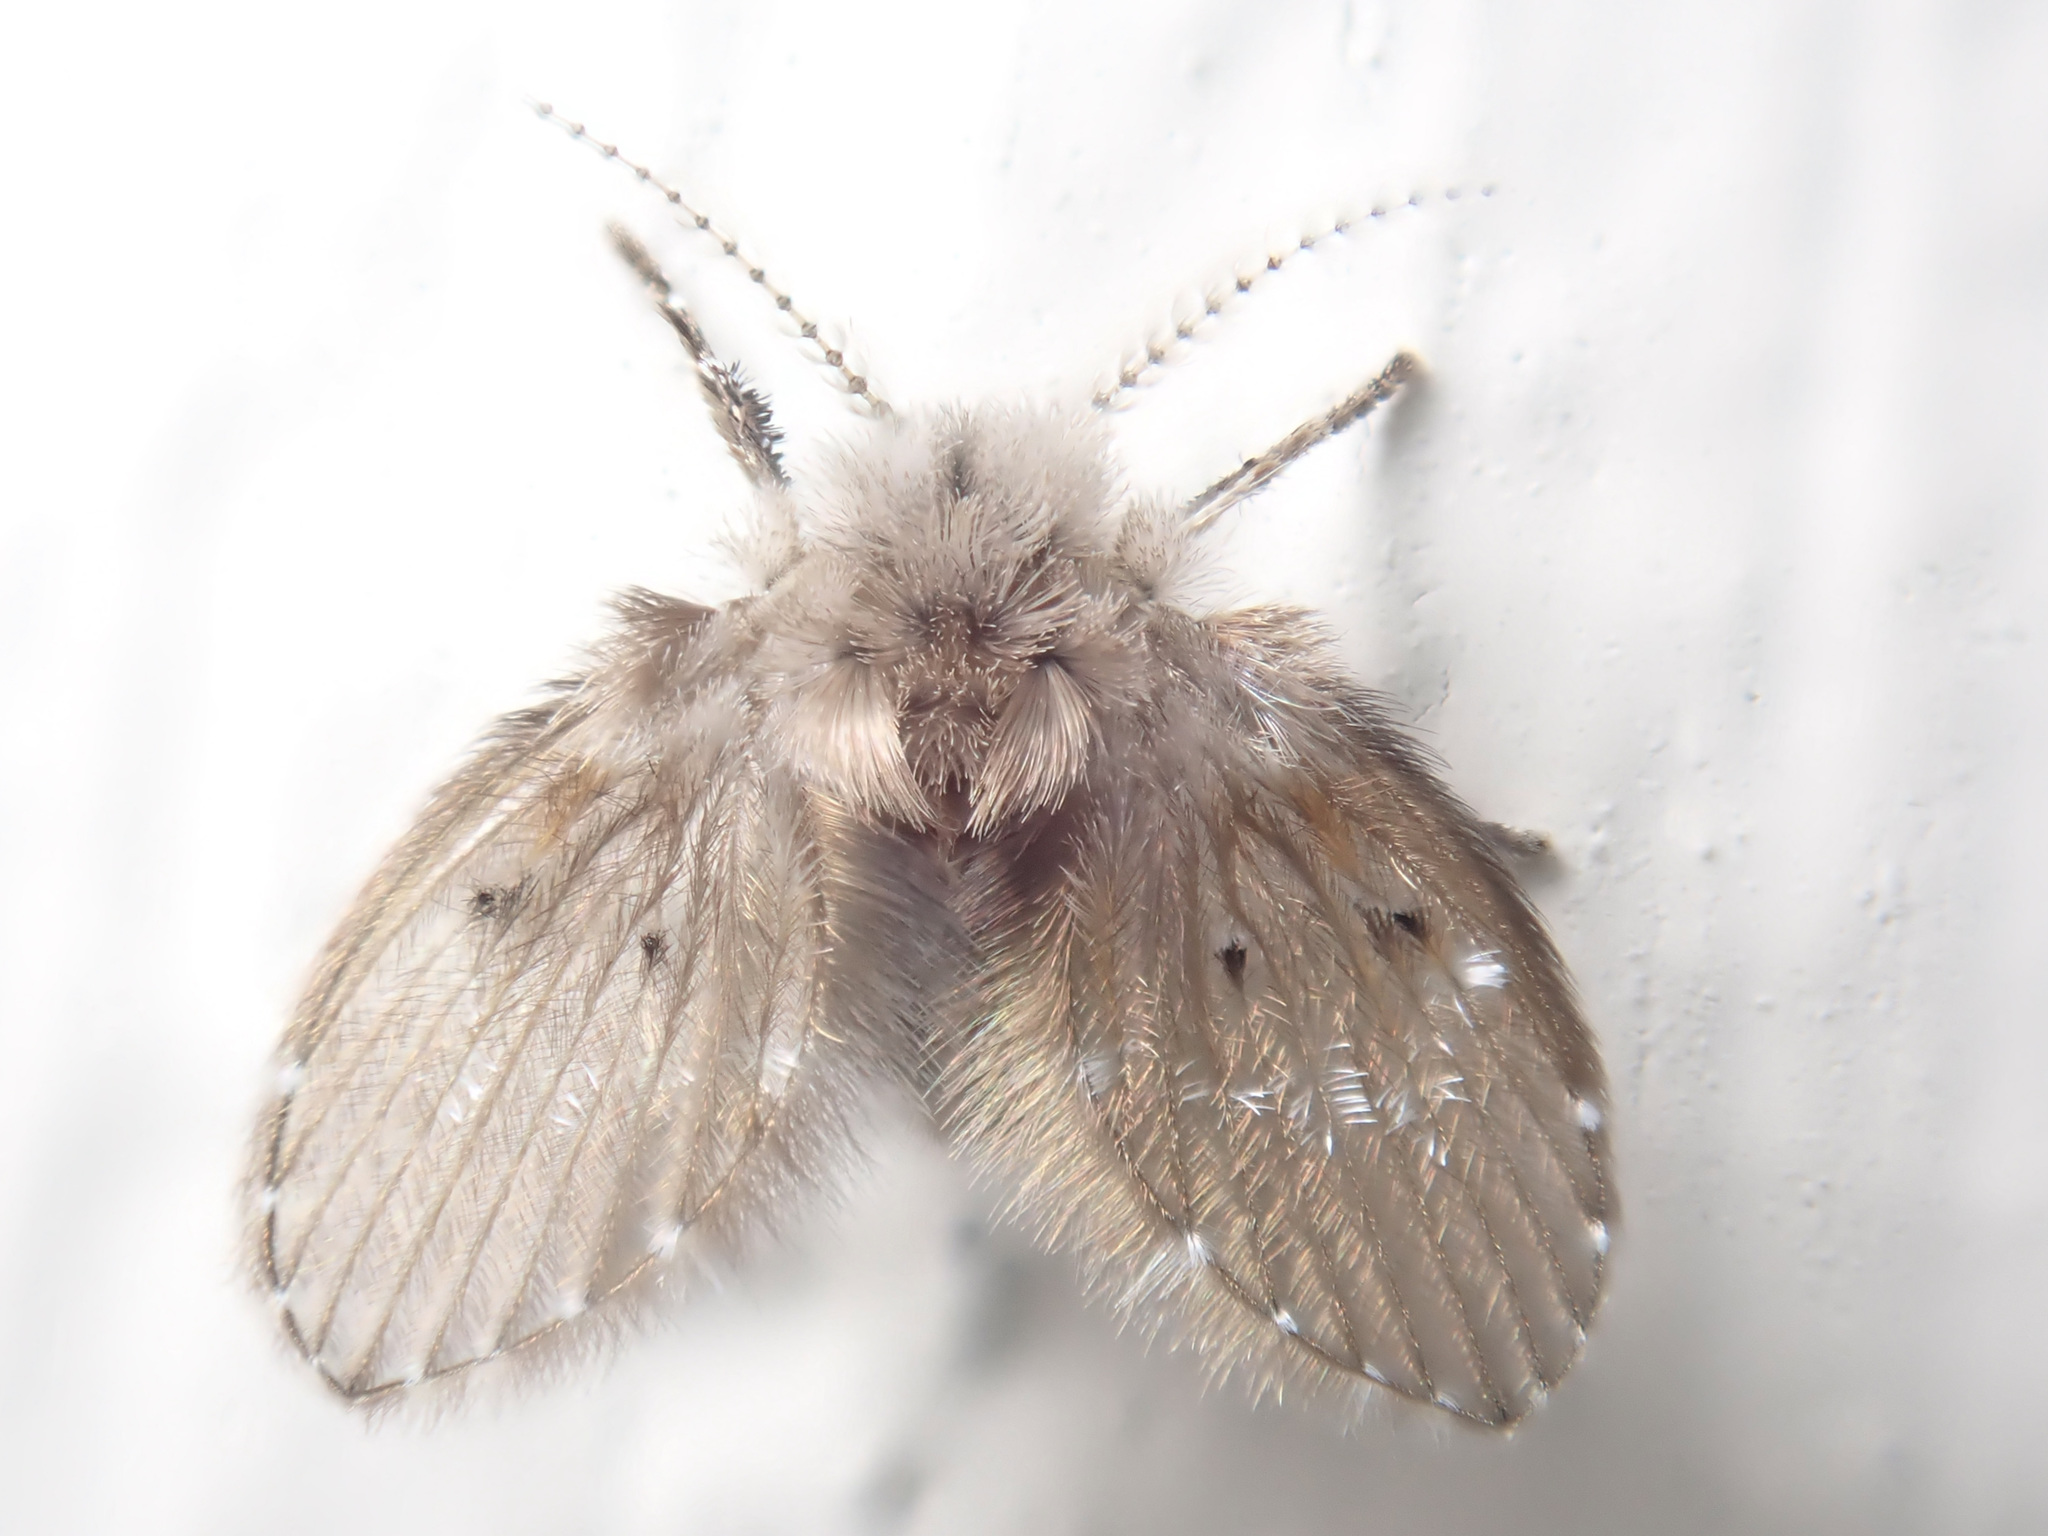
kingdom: Animalia
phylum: Arthropoda
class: Insecta
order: Diptera
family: Psychodidae
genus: Clogmia
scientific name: Clogmia albipunctatus
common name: White-spotted moth fly
